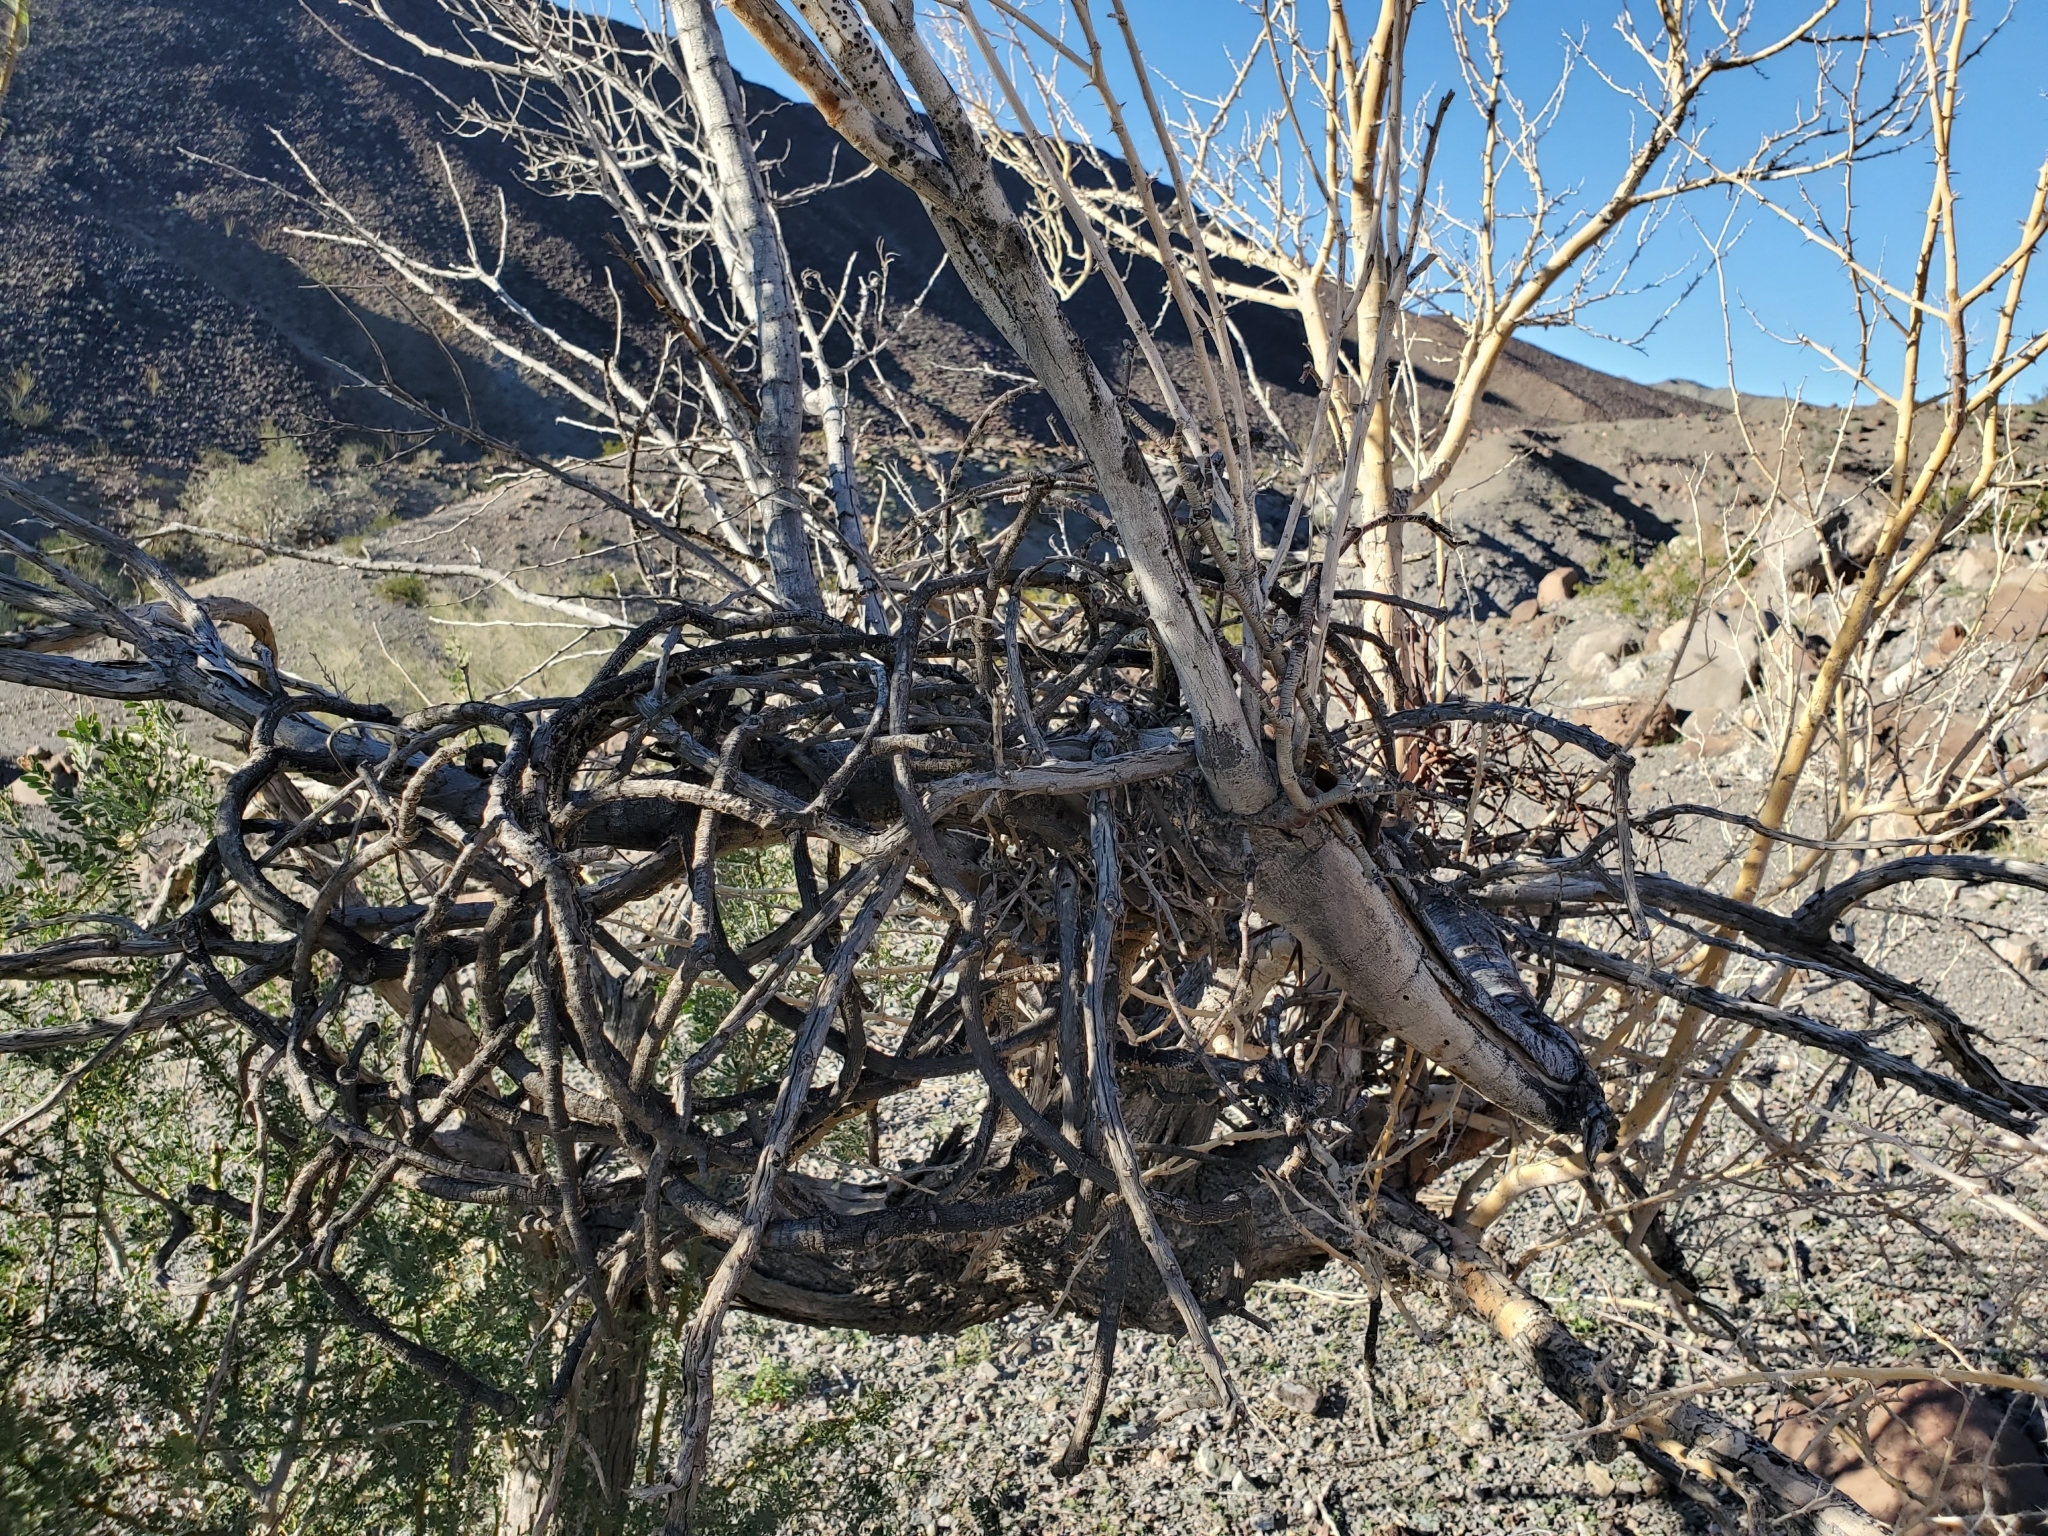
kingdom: Plantae
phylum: Tracheophyta
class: Magnoliopsida
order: Santalales
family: Viscaceae
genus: Phoradendron
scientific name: Phoradendron californicum
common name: Acacia mistletoe
